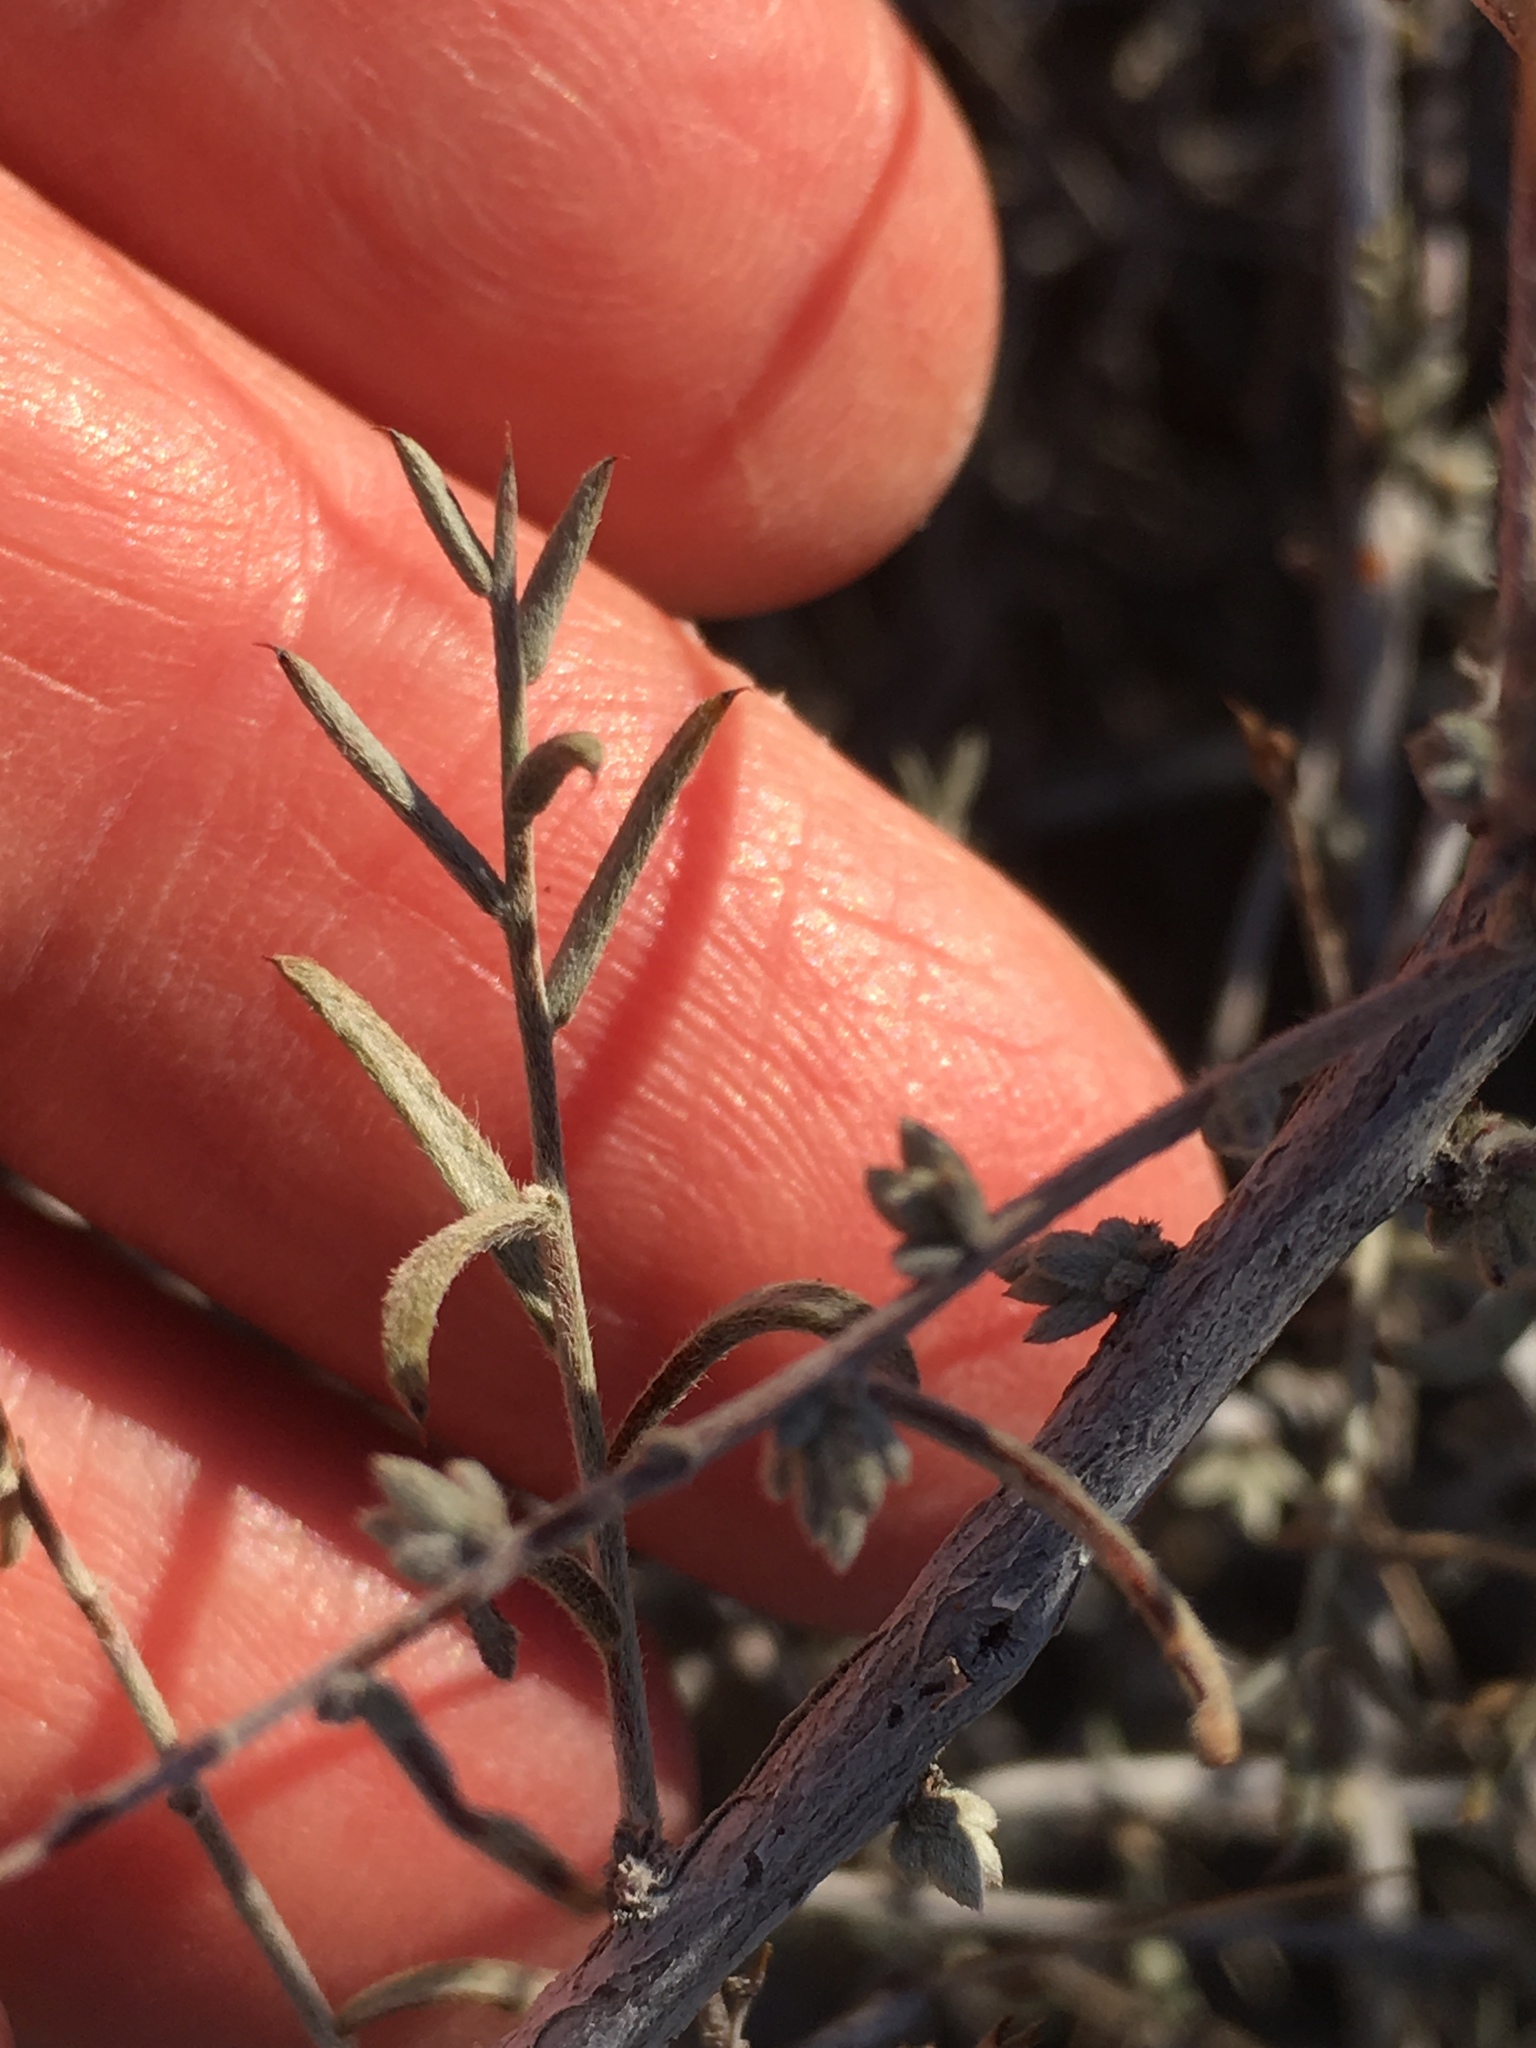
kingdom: Plantae
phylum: Tracheophyta
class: Magnoliopsida
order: Zygophyllales
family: Krameriaceae
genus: Krameria
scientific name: Krameria erecta
